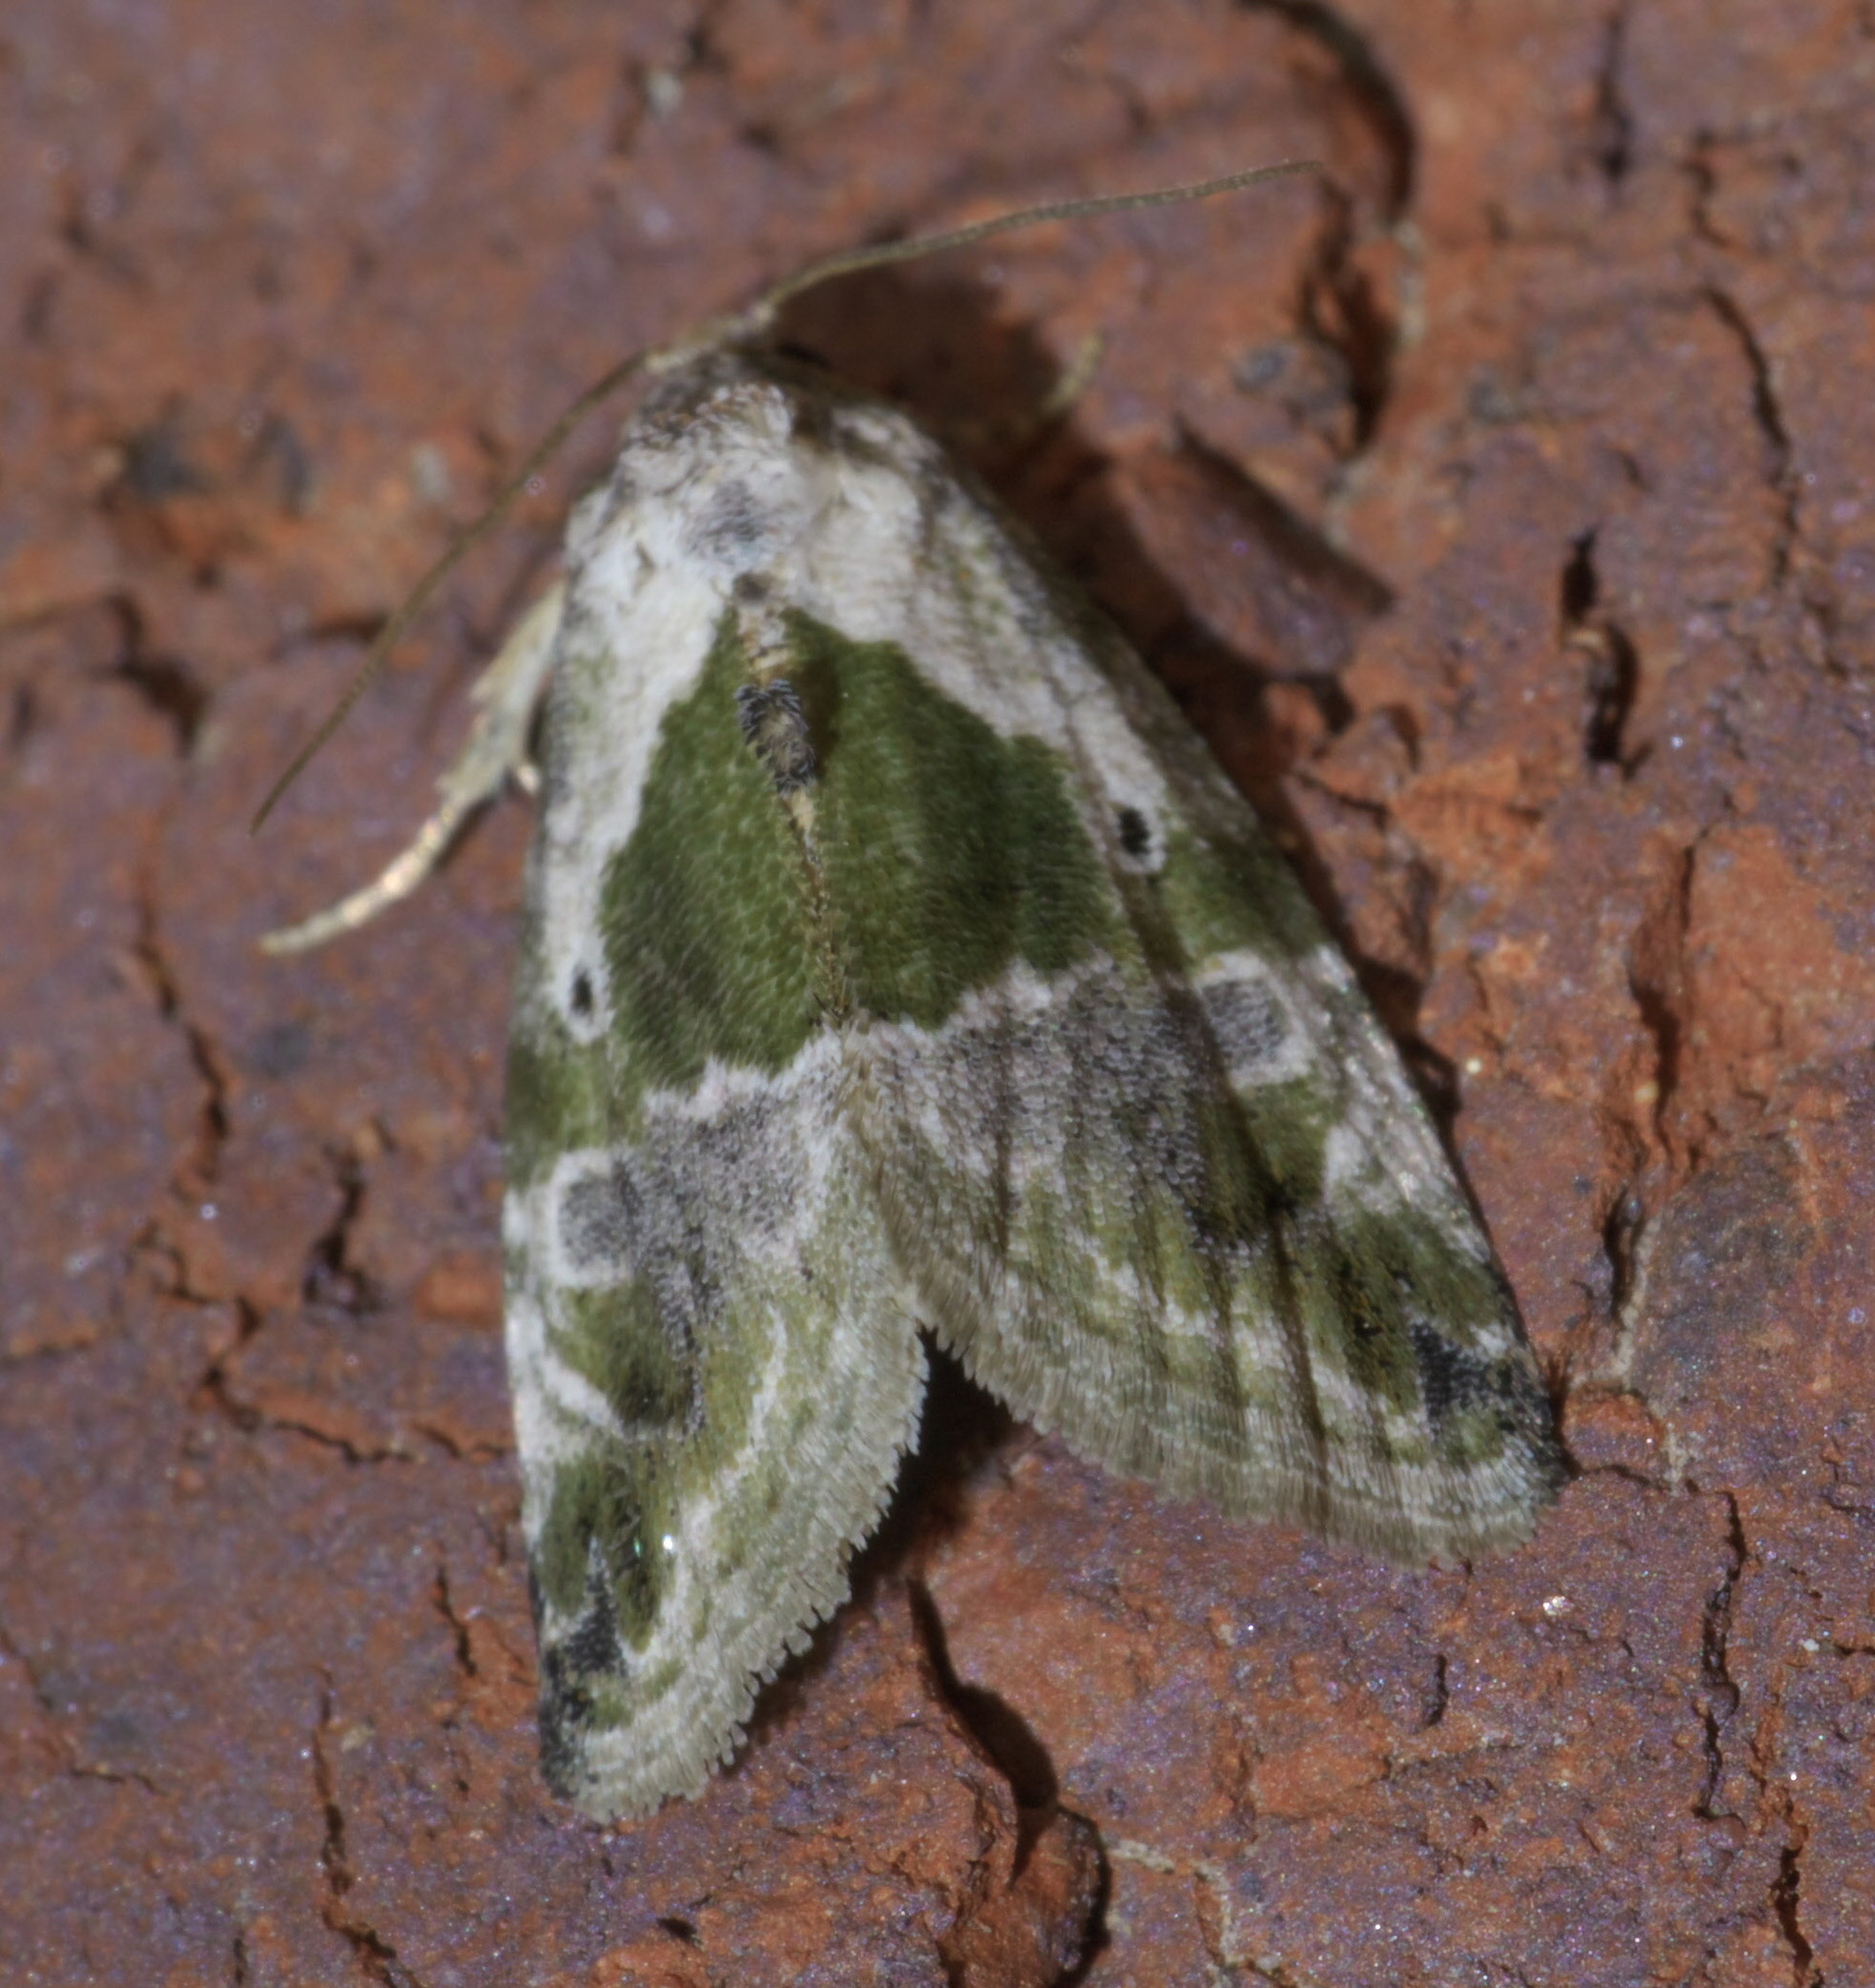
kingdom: Animalia
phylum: Arthropoda
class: Insecta
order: Lepidoptera
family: Noctuidae
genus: Maliattha
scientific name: Maliattha synochitis
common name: Black-dotted glyph
